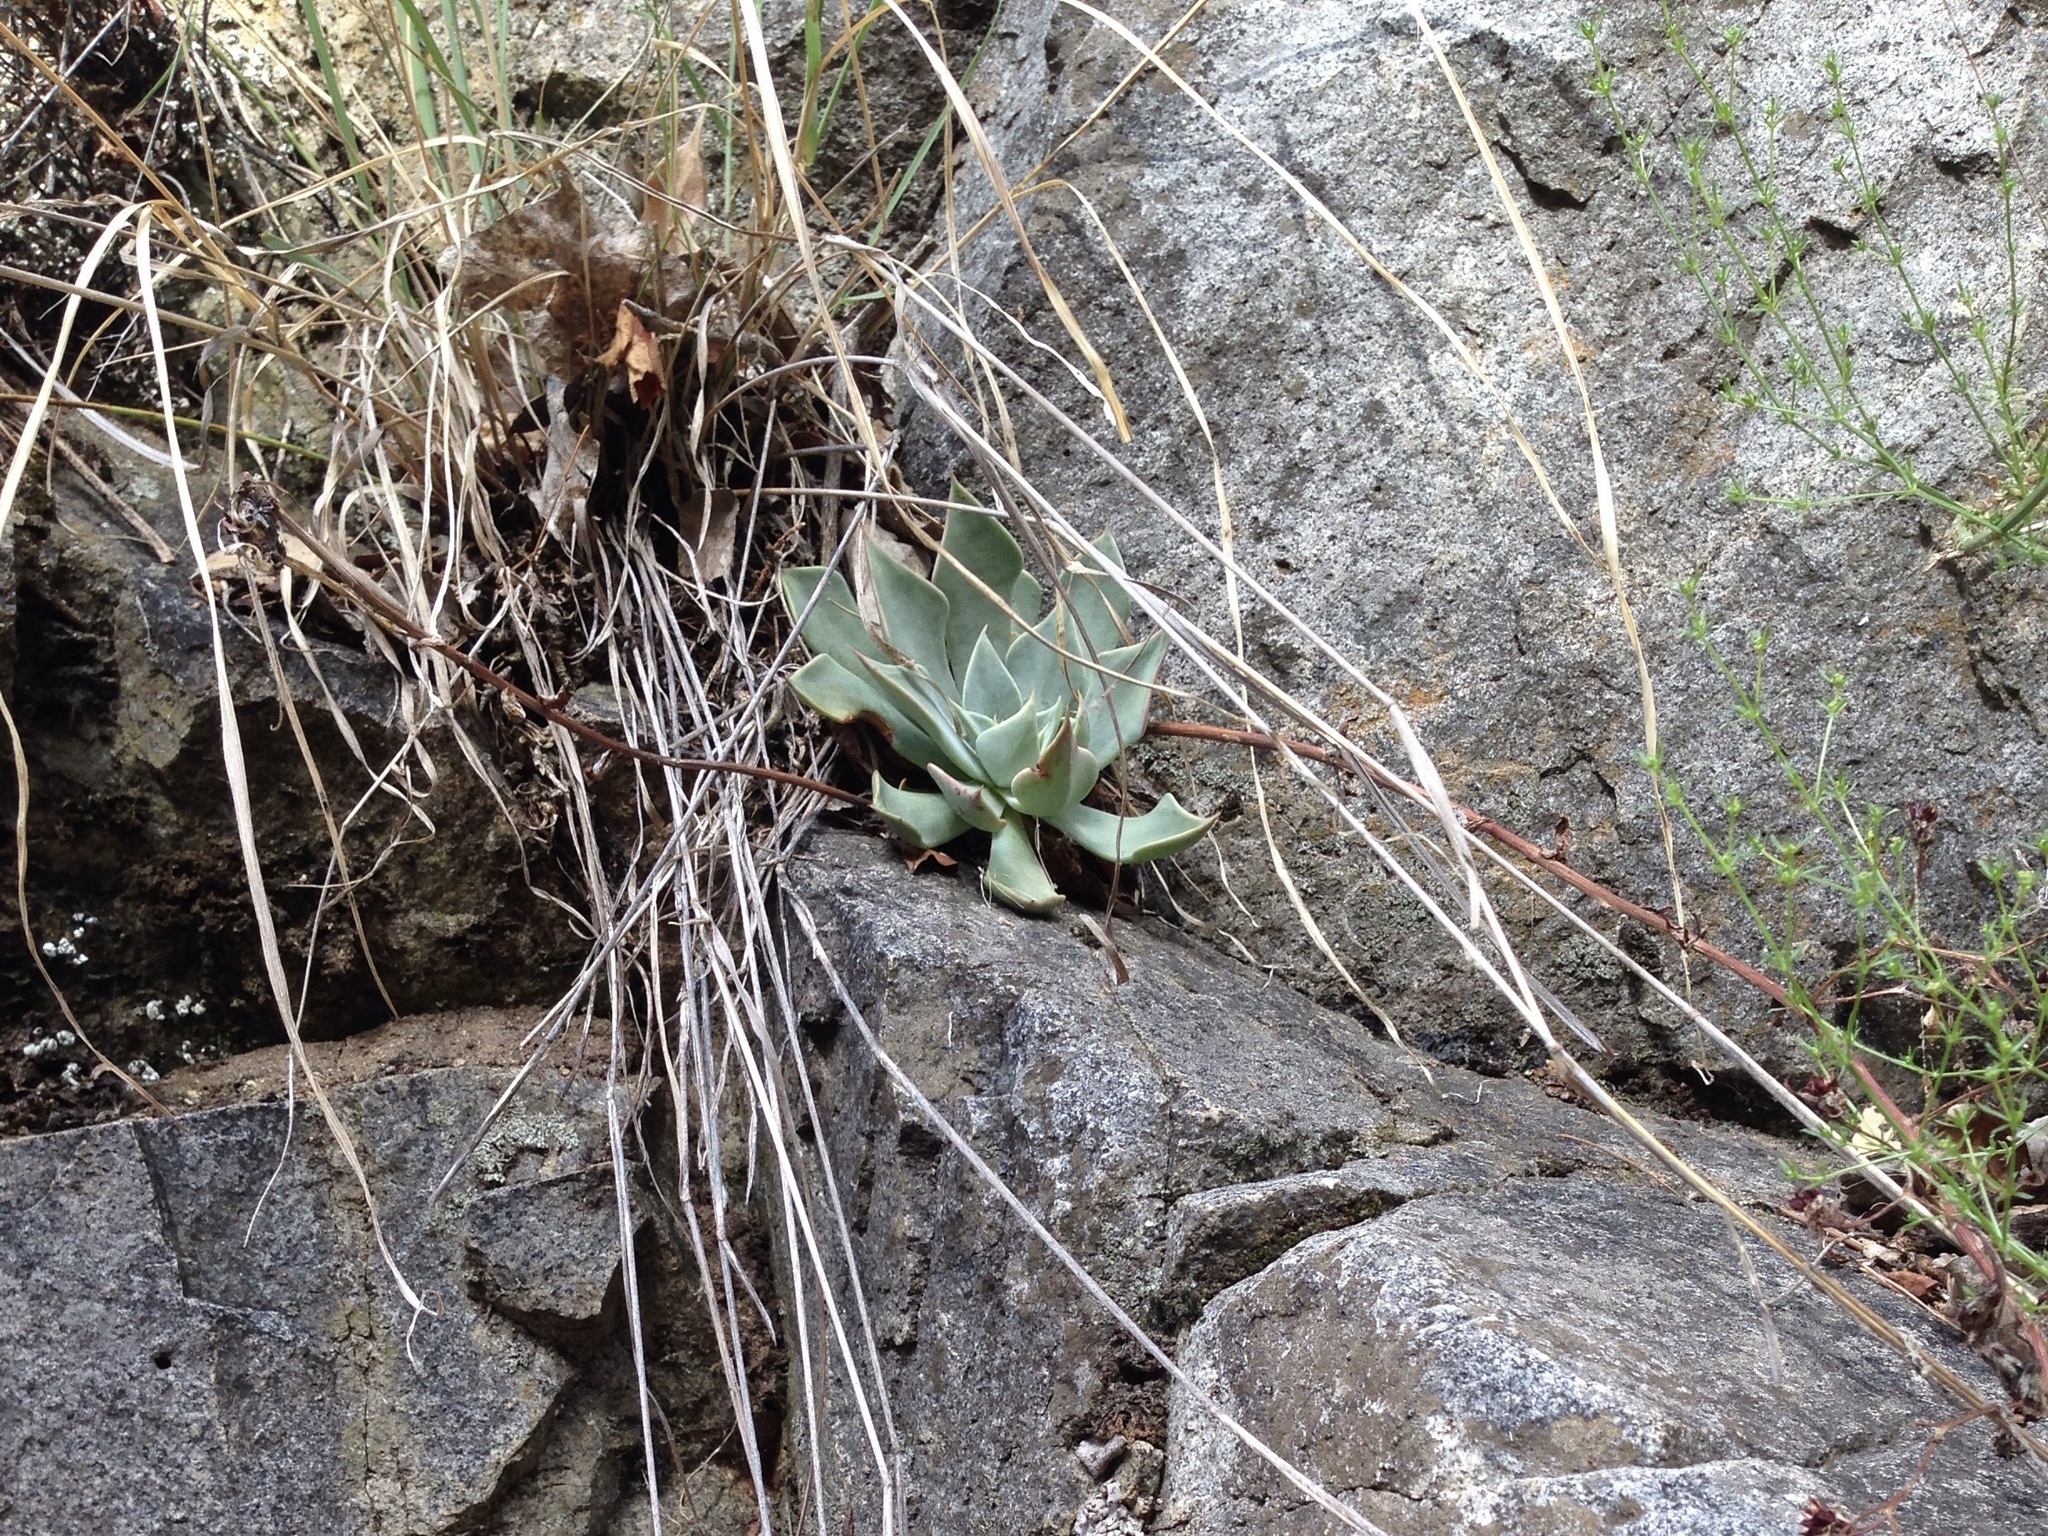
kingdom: Plantae
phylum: Tracheophyta
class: Magnoliopsida
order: Saxifragales
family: Crassulaceae
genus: Graptopetalum
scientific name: Graptopetalum bartramii
